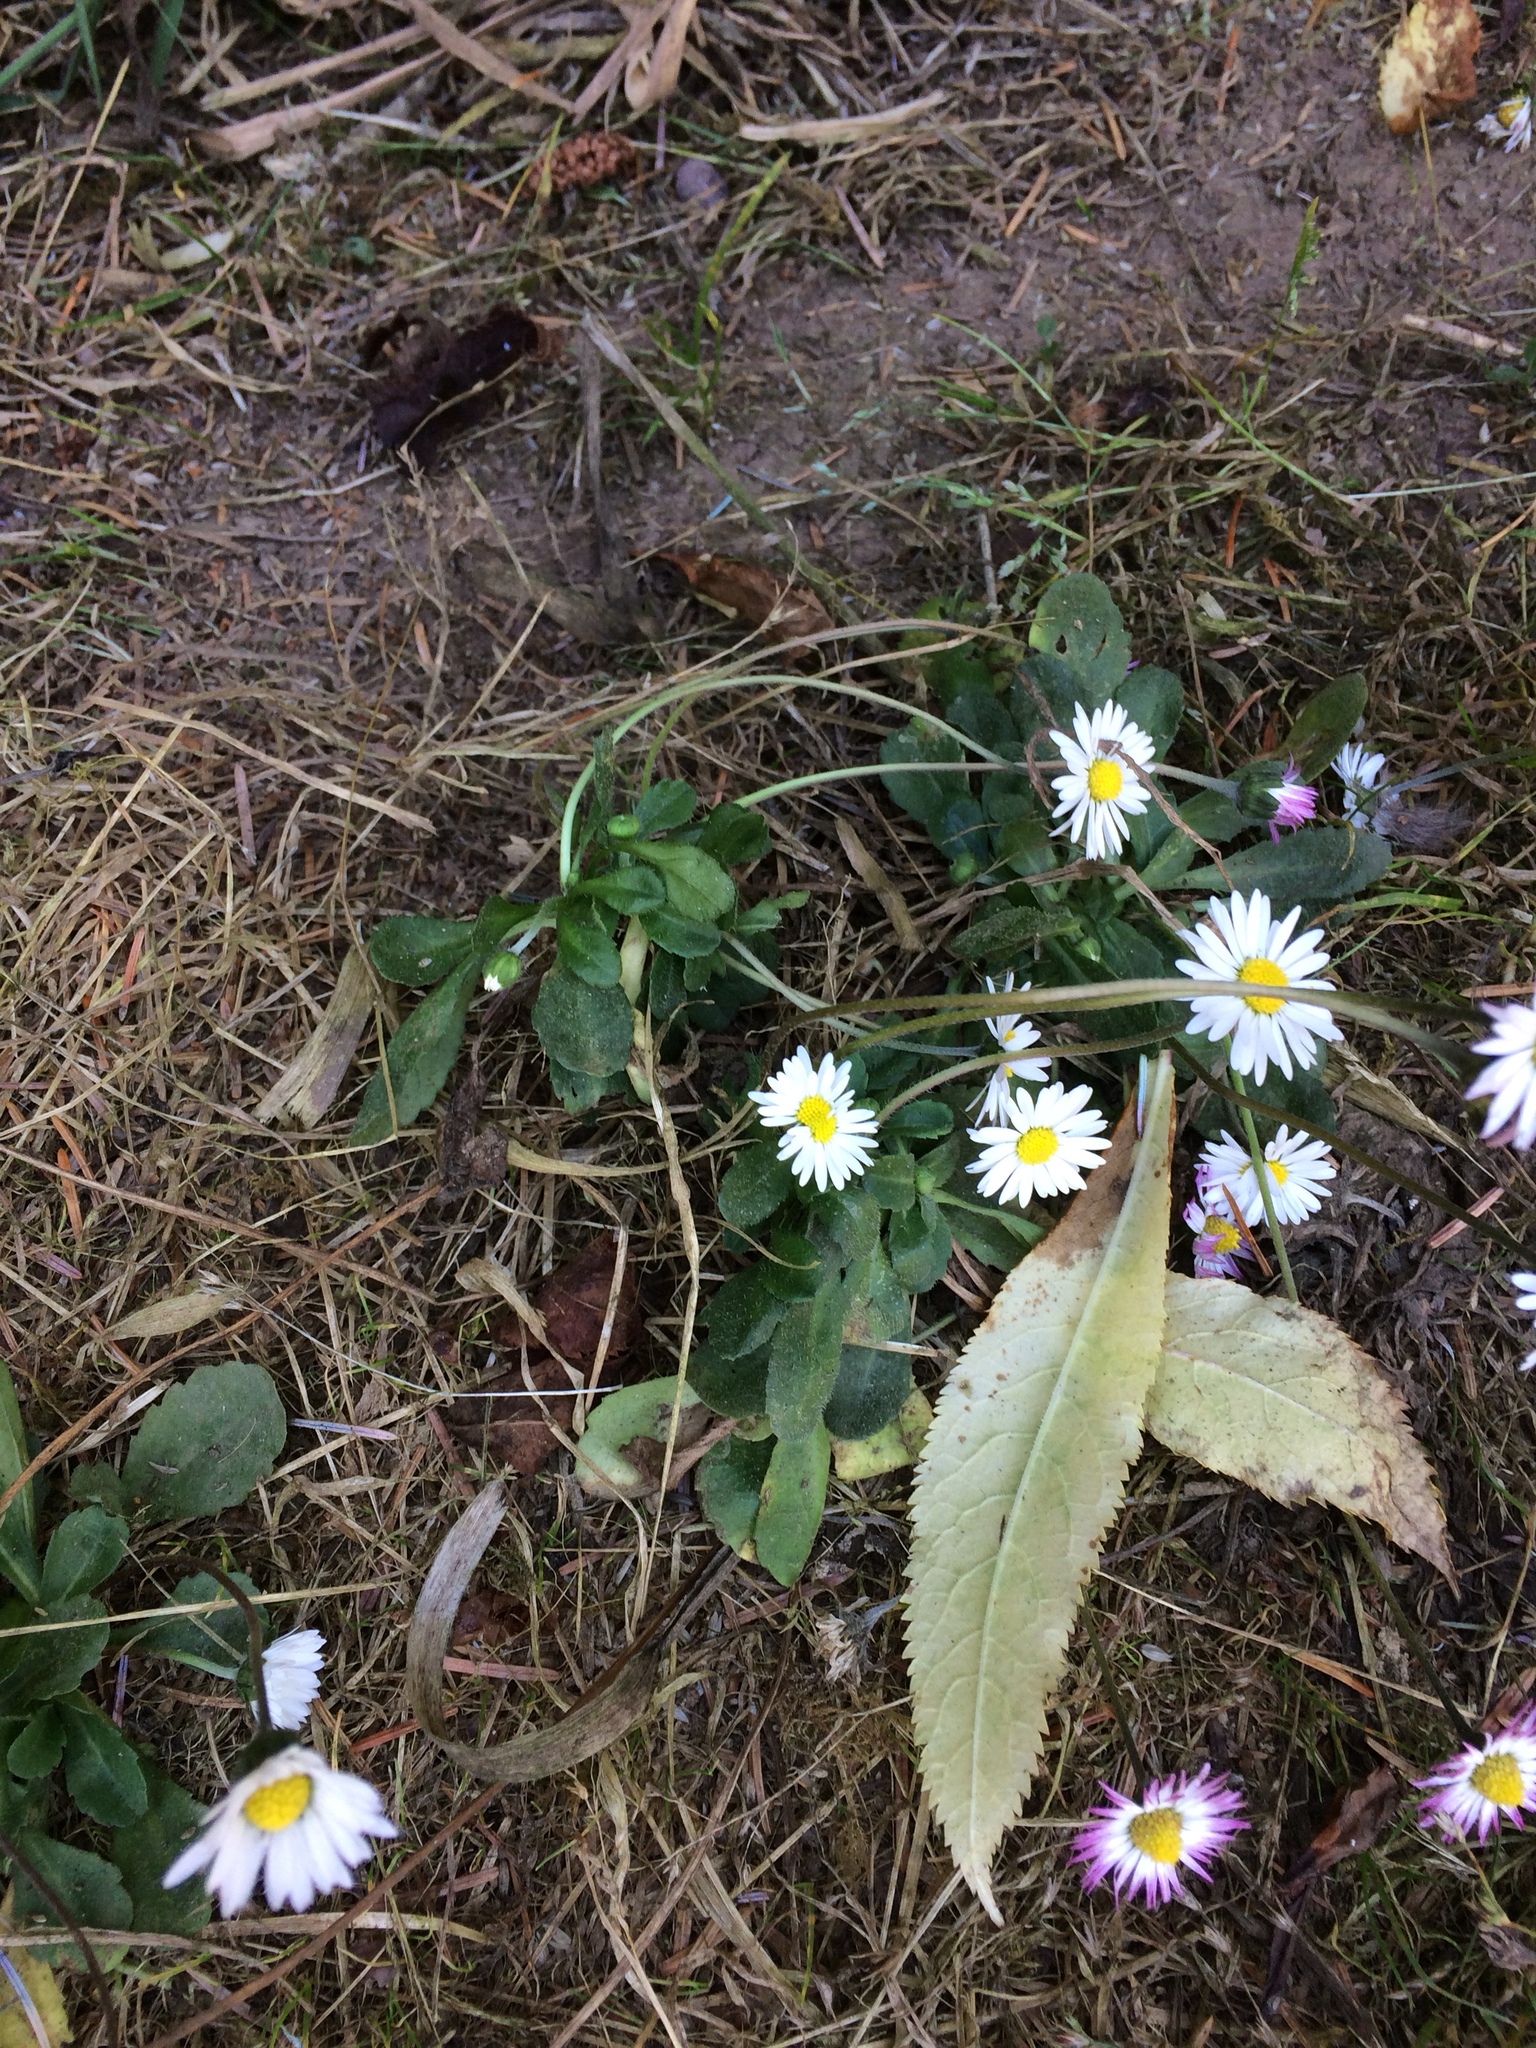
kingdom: Plantae
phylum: Tracheophyta
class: Magnoliopsida
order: Asterales
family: Asteraceae
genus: Bellis
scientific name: Bellis perennis
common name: Lawndaisy
